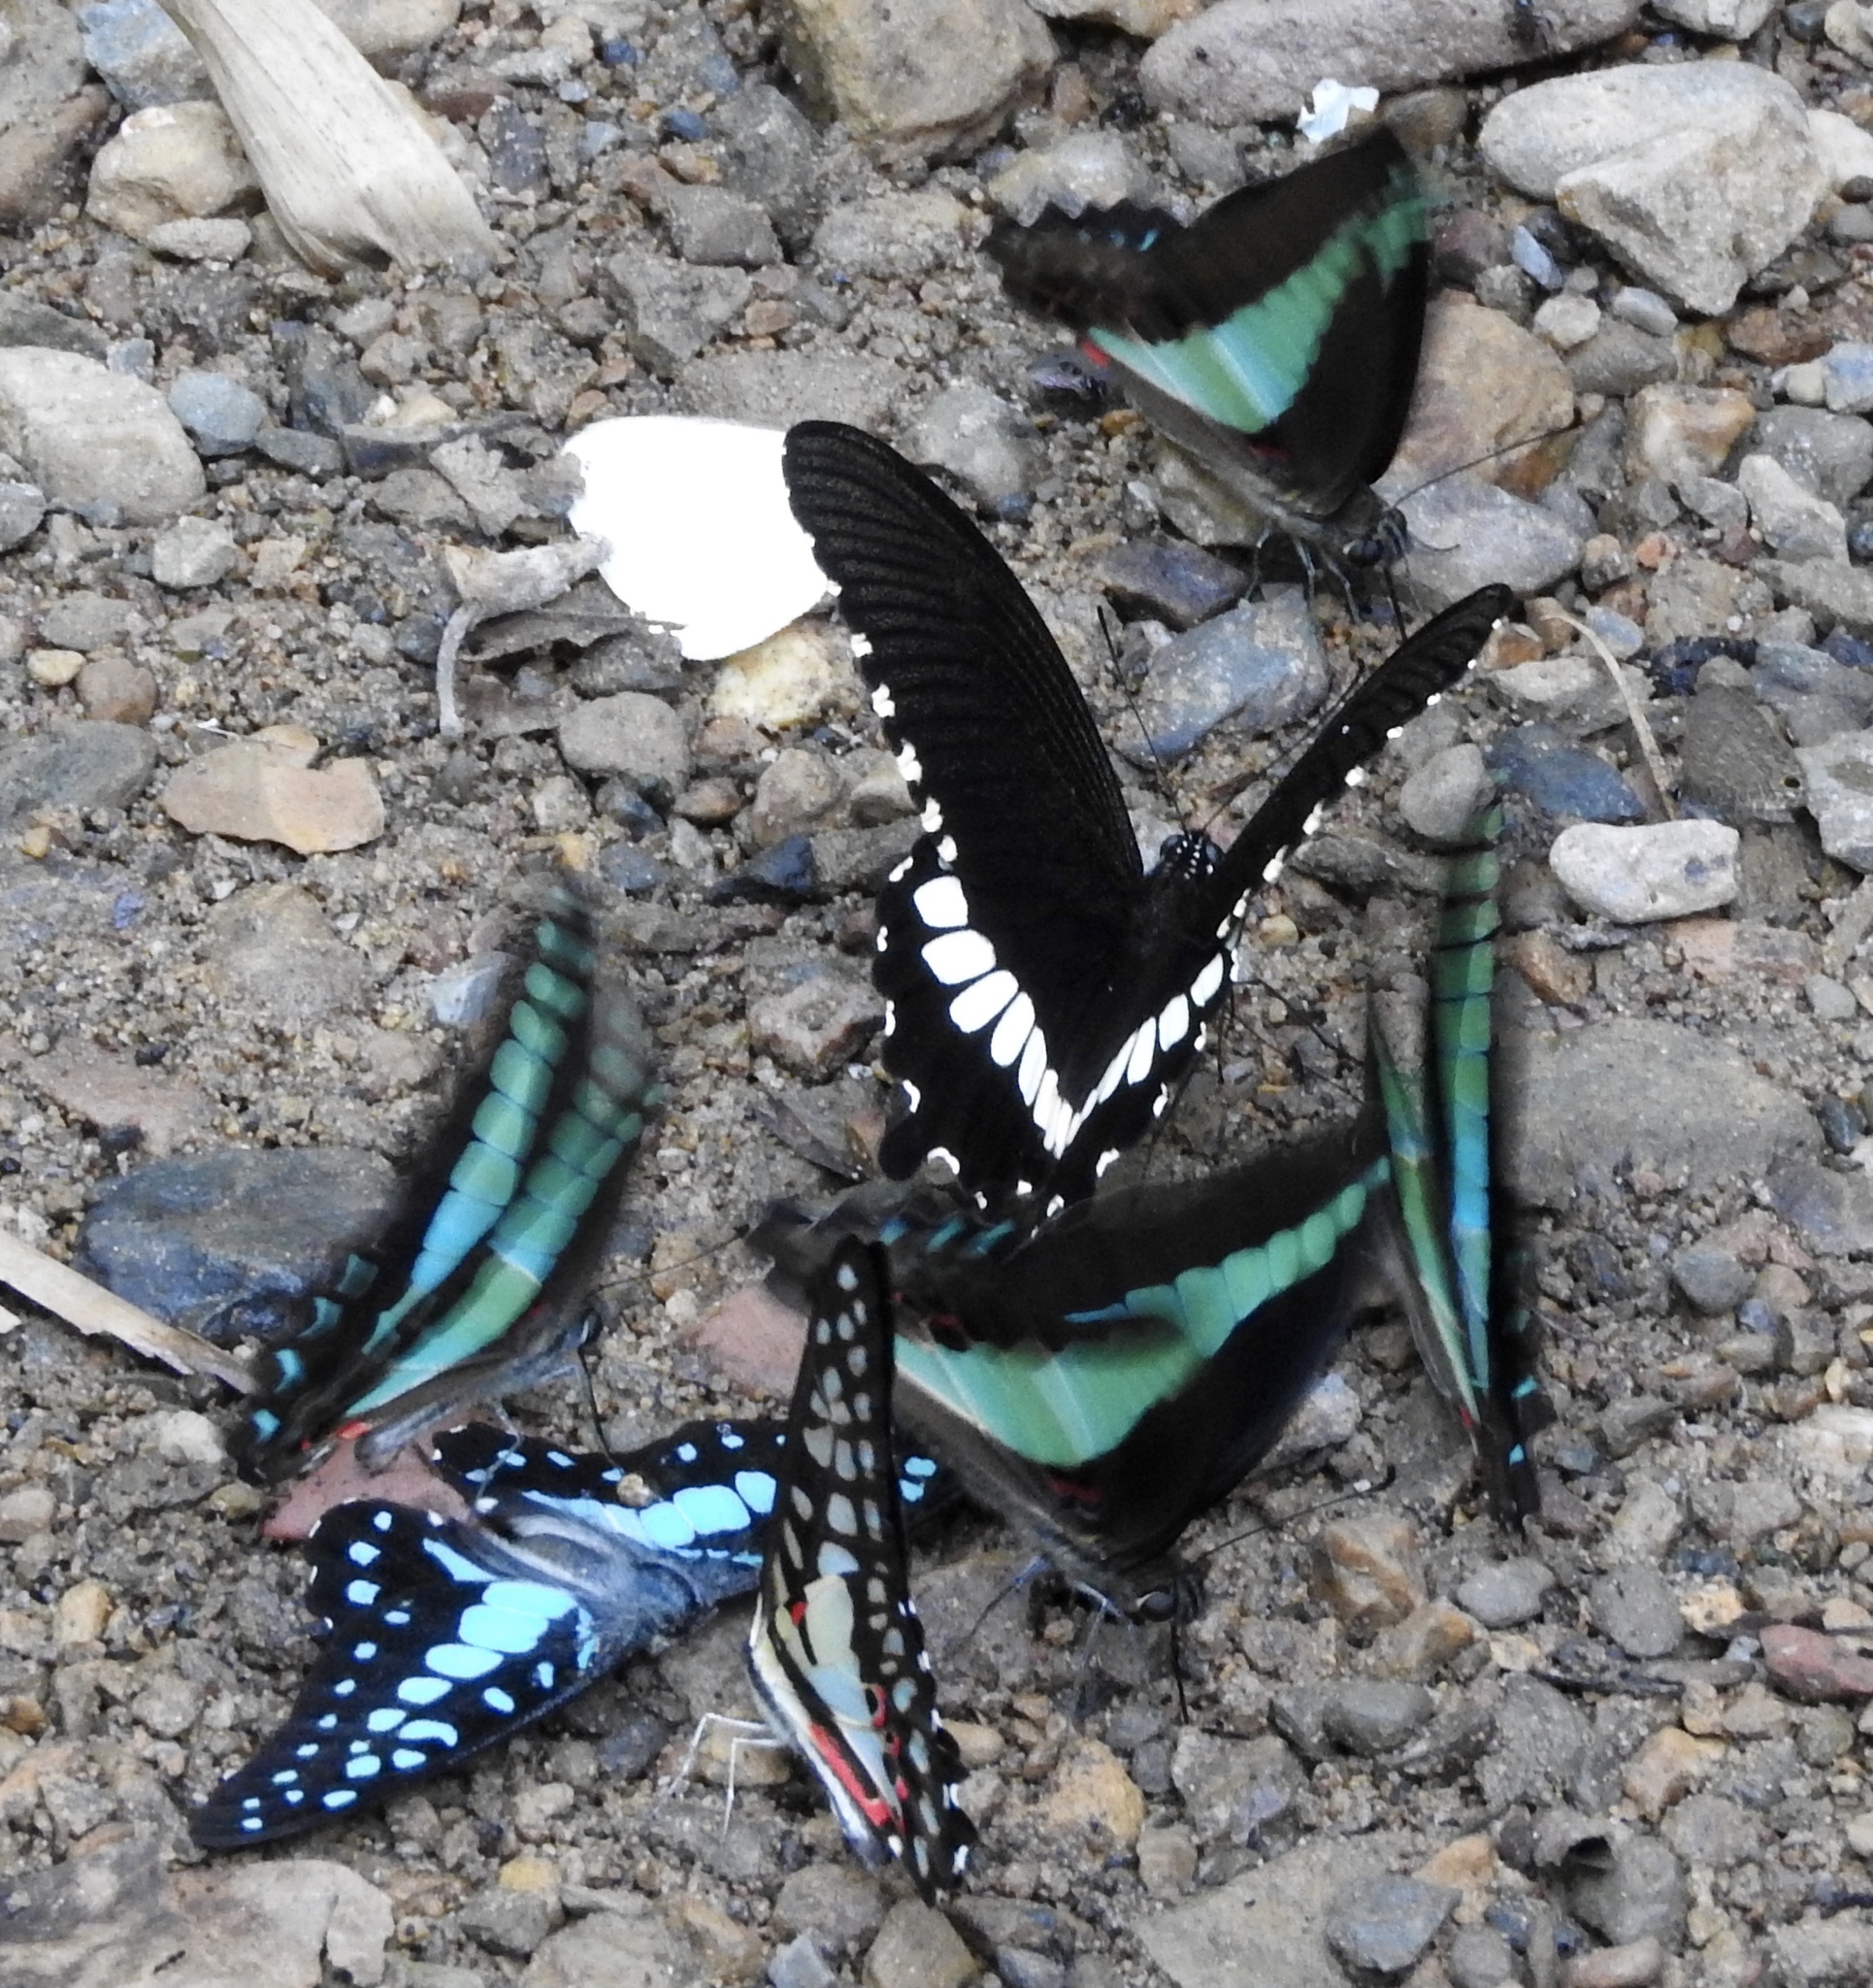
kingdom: Animalia
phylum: Arthropoda
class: Insecta
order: Lepidoptera
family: Papilionidae
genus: Papilio
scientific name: Papilio polytes
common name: Common mormon
